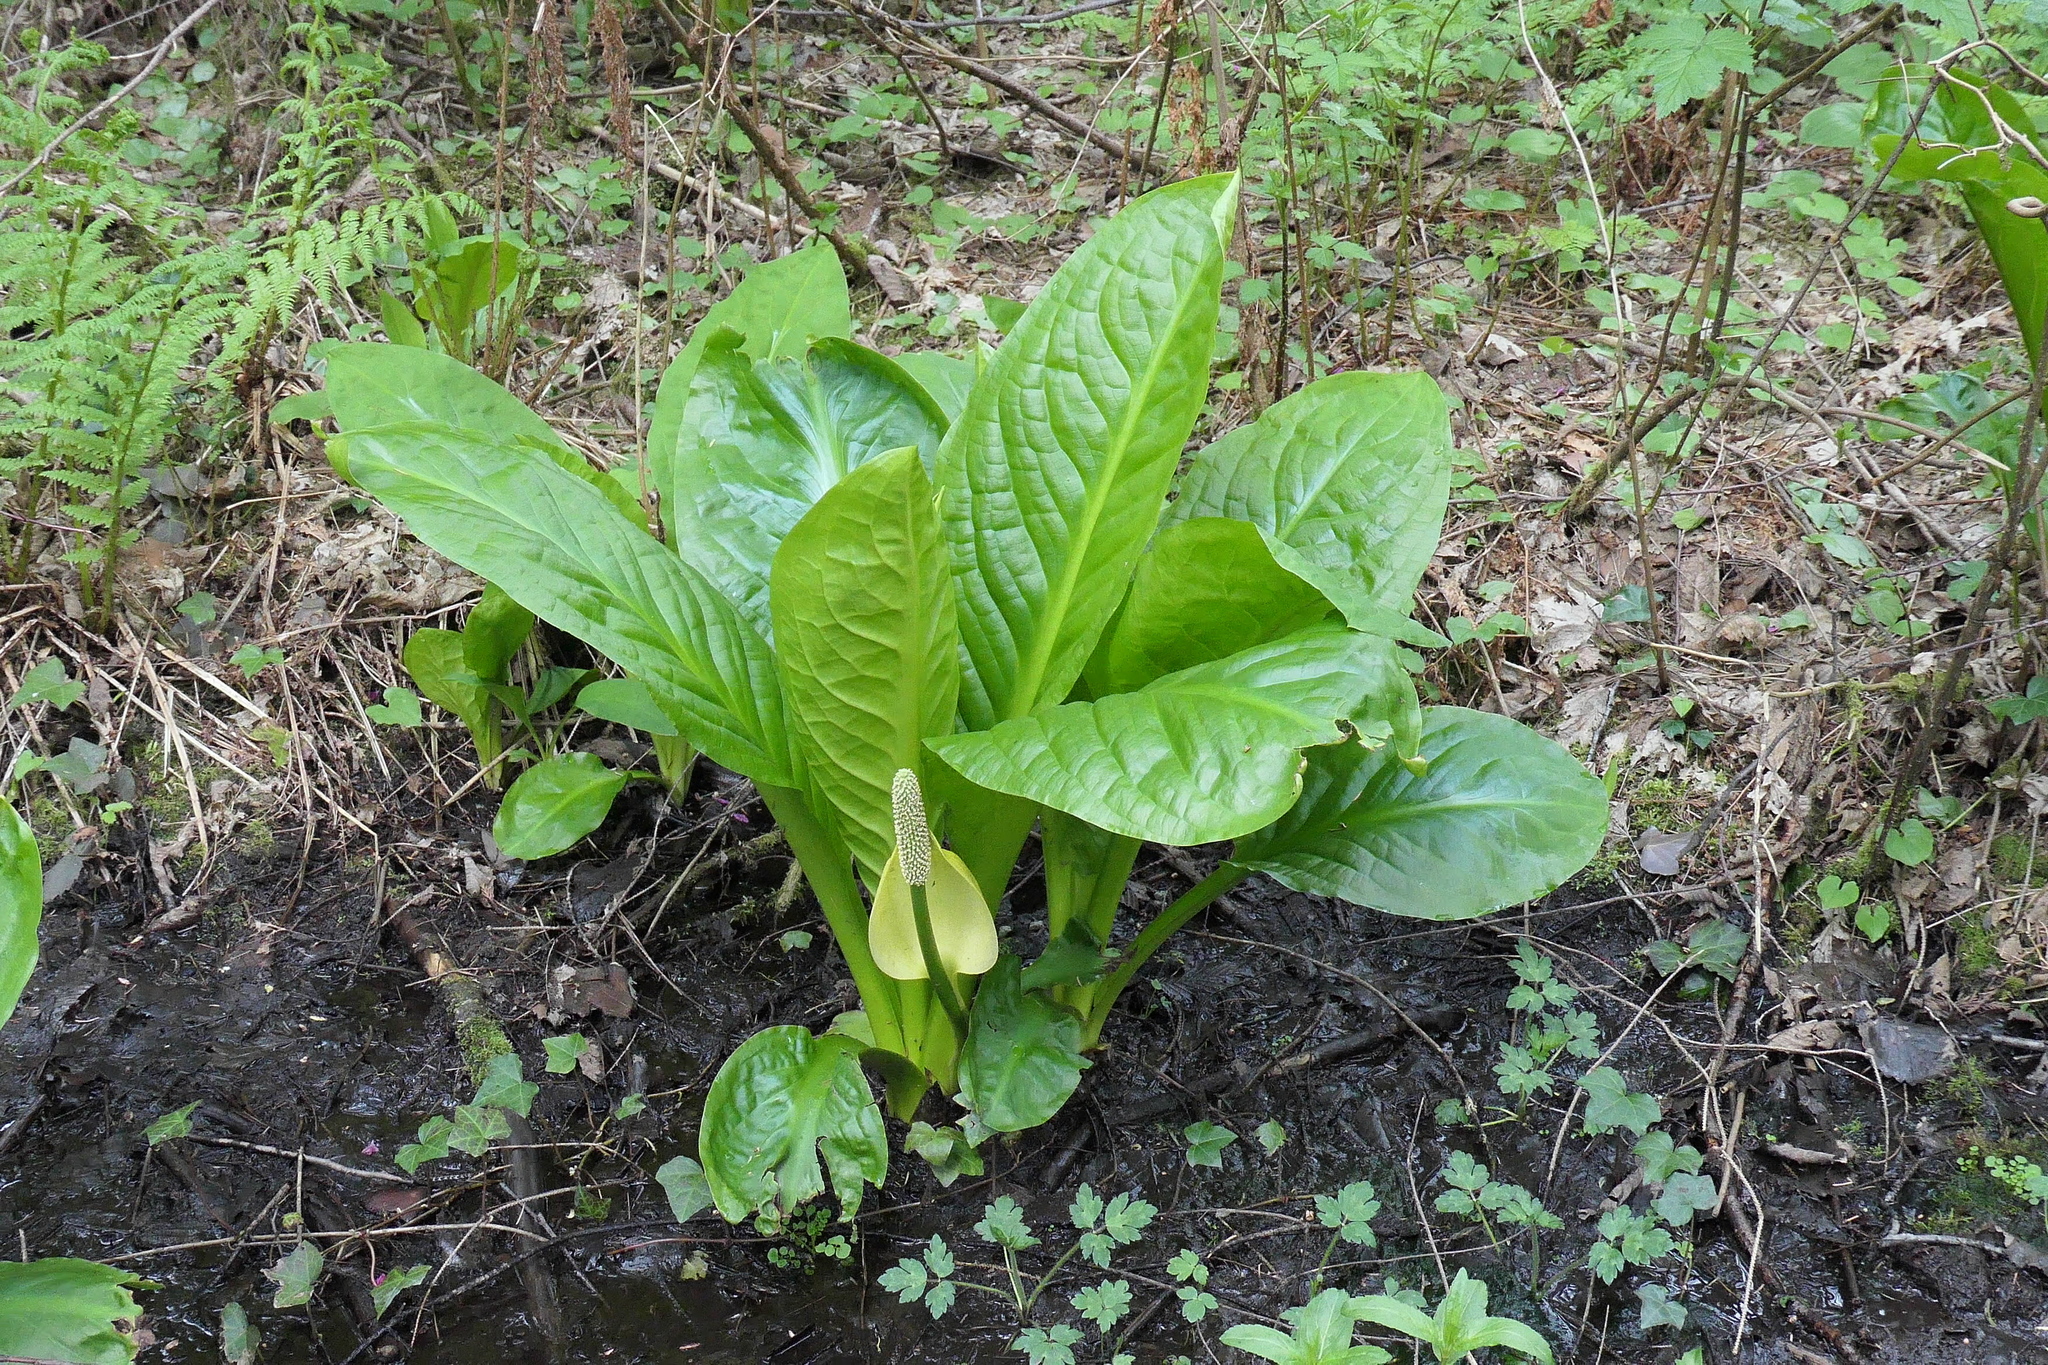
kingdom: Plantae
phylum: Tracheophyta
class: Liliopsida
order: Alismatales
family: Araceae
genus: Lysichiton
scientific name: Lysichiton americanus
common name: American skunk cabbage
